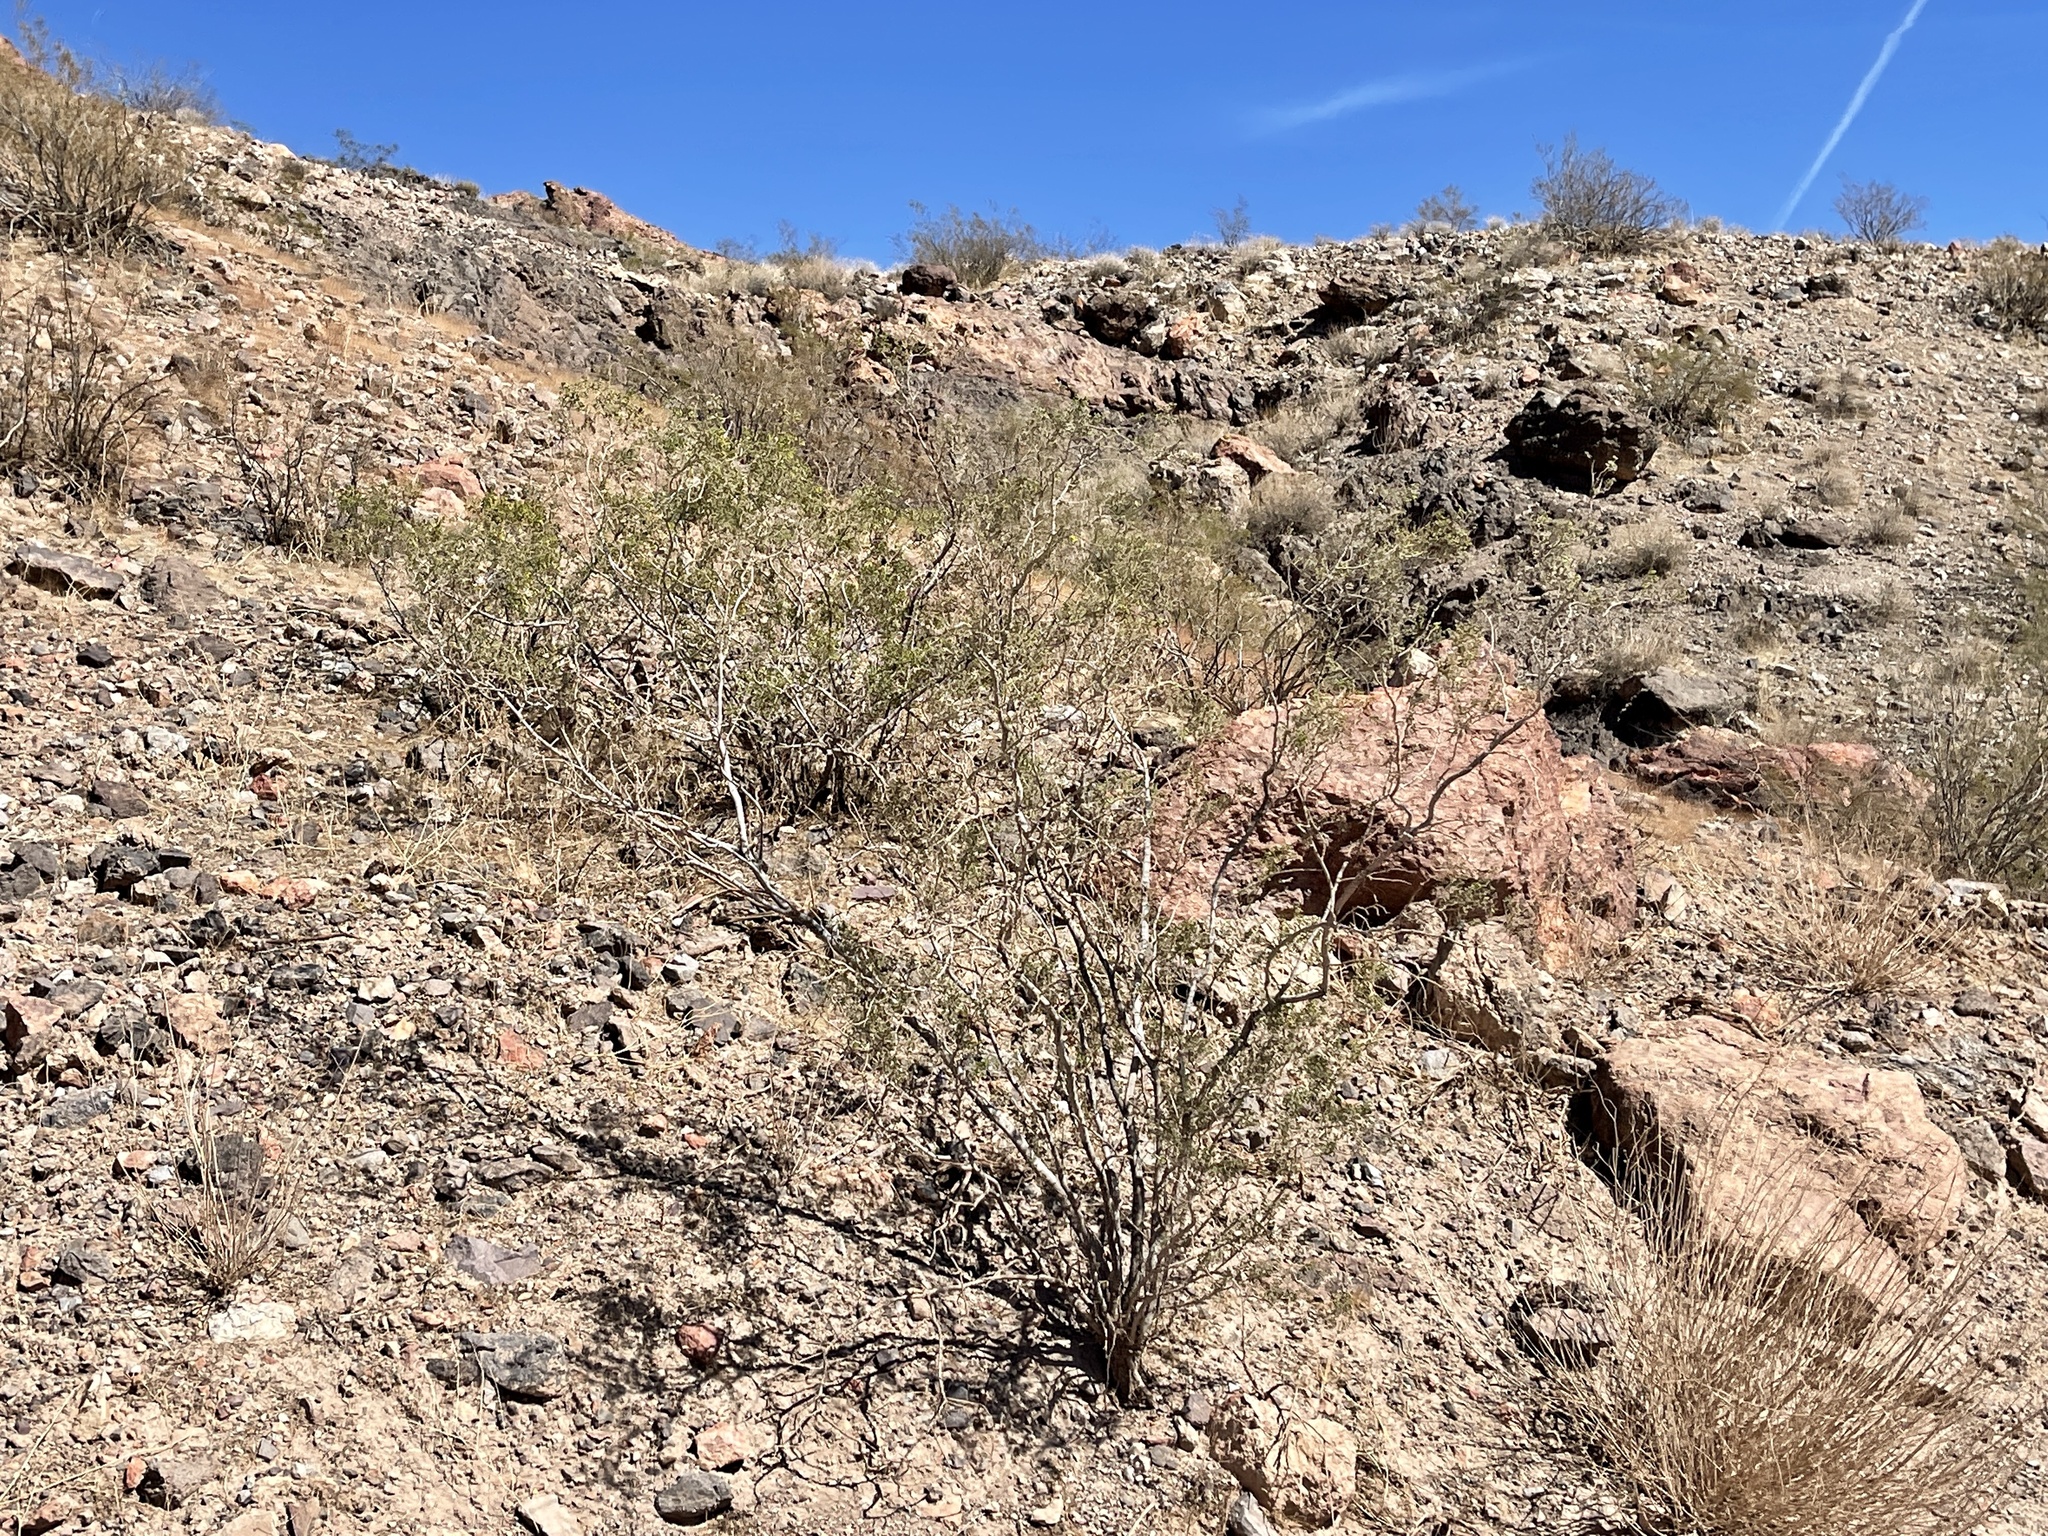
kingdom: Plantae
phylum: Tracheophyta
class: Magnoliopsida
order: Zygophyllales
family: Zygophyllaceae
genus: Larrea
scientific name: Larrea tridentata
